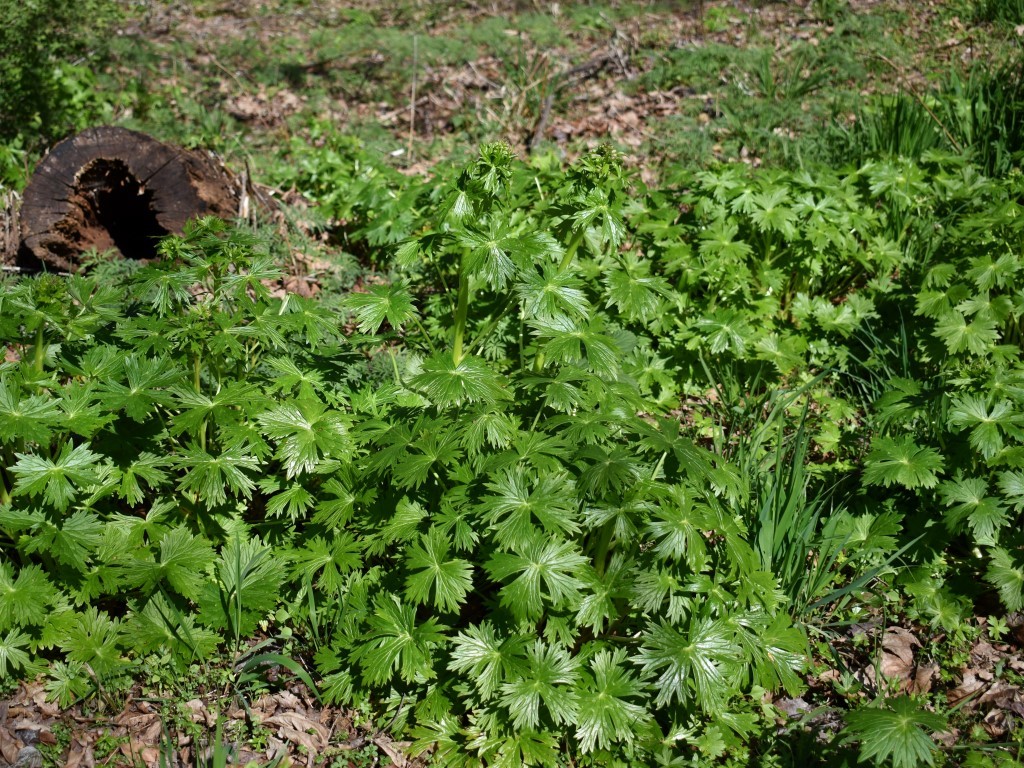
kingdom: Plantae
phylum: Tracheophyta
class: Magnoliopsida
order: Ranunculales
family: Ranunculaceae
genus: Delphinium
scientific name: Delphinium trolliifolium
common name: Cow-poison
